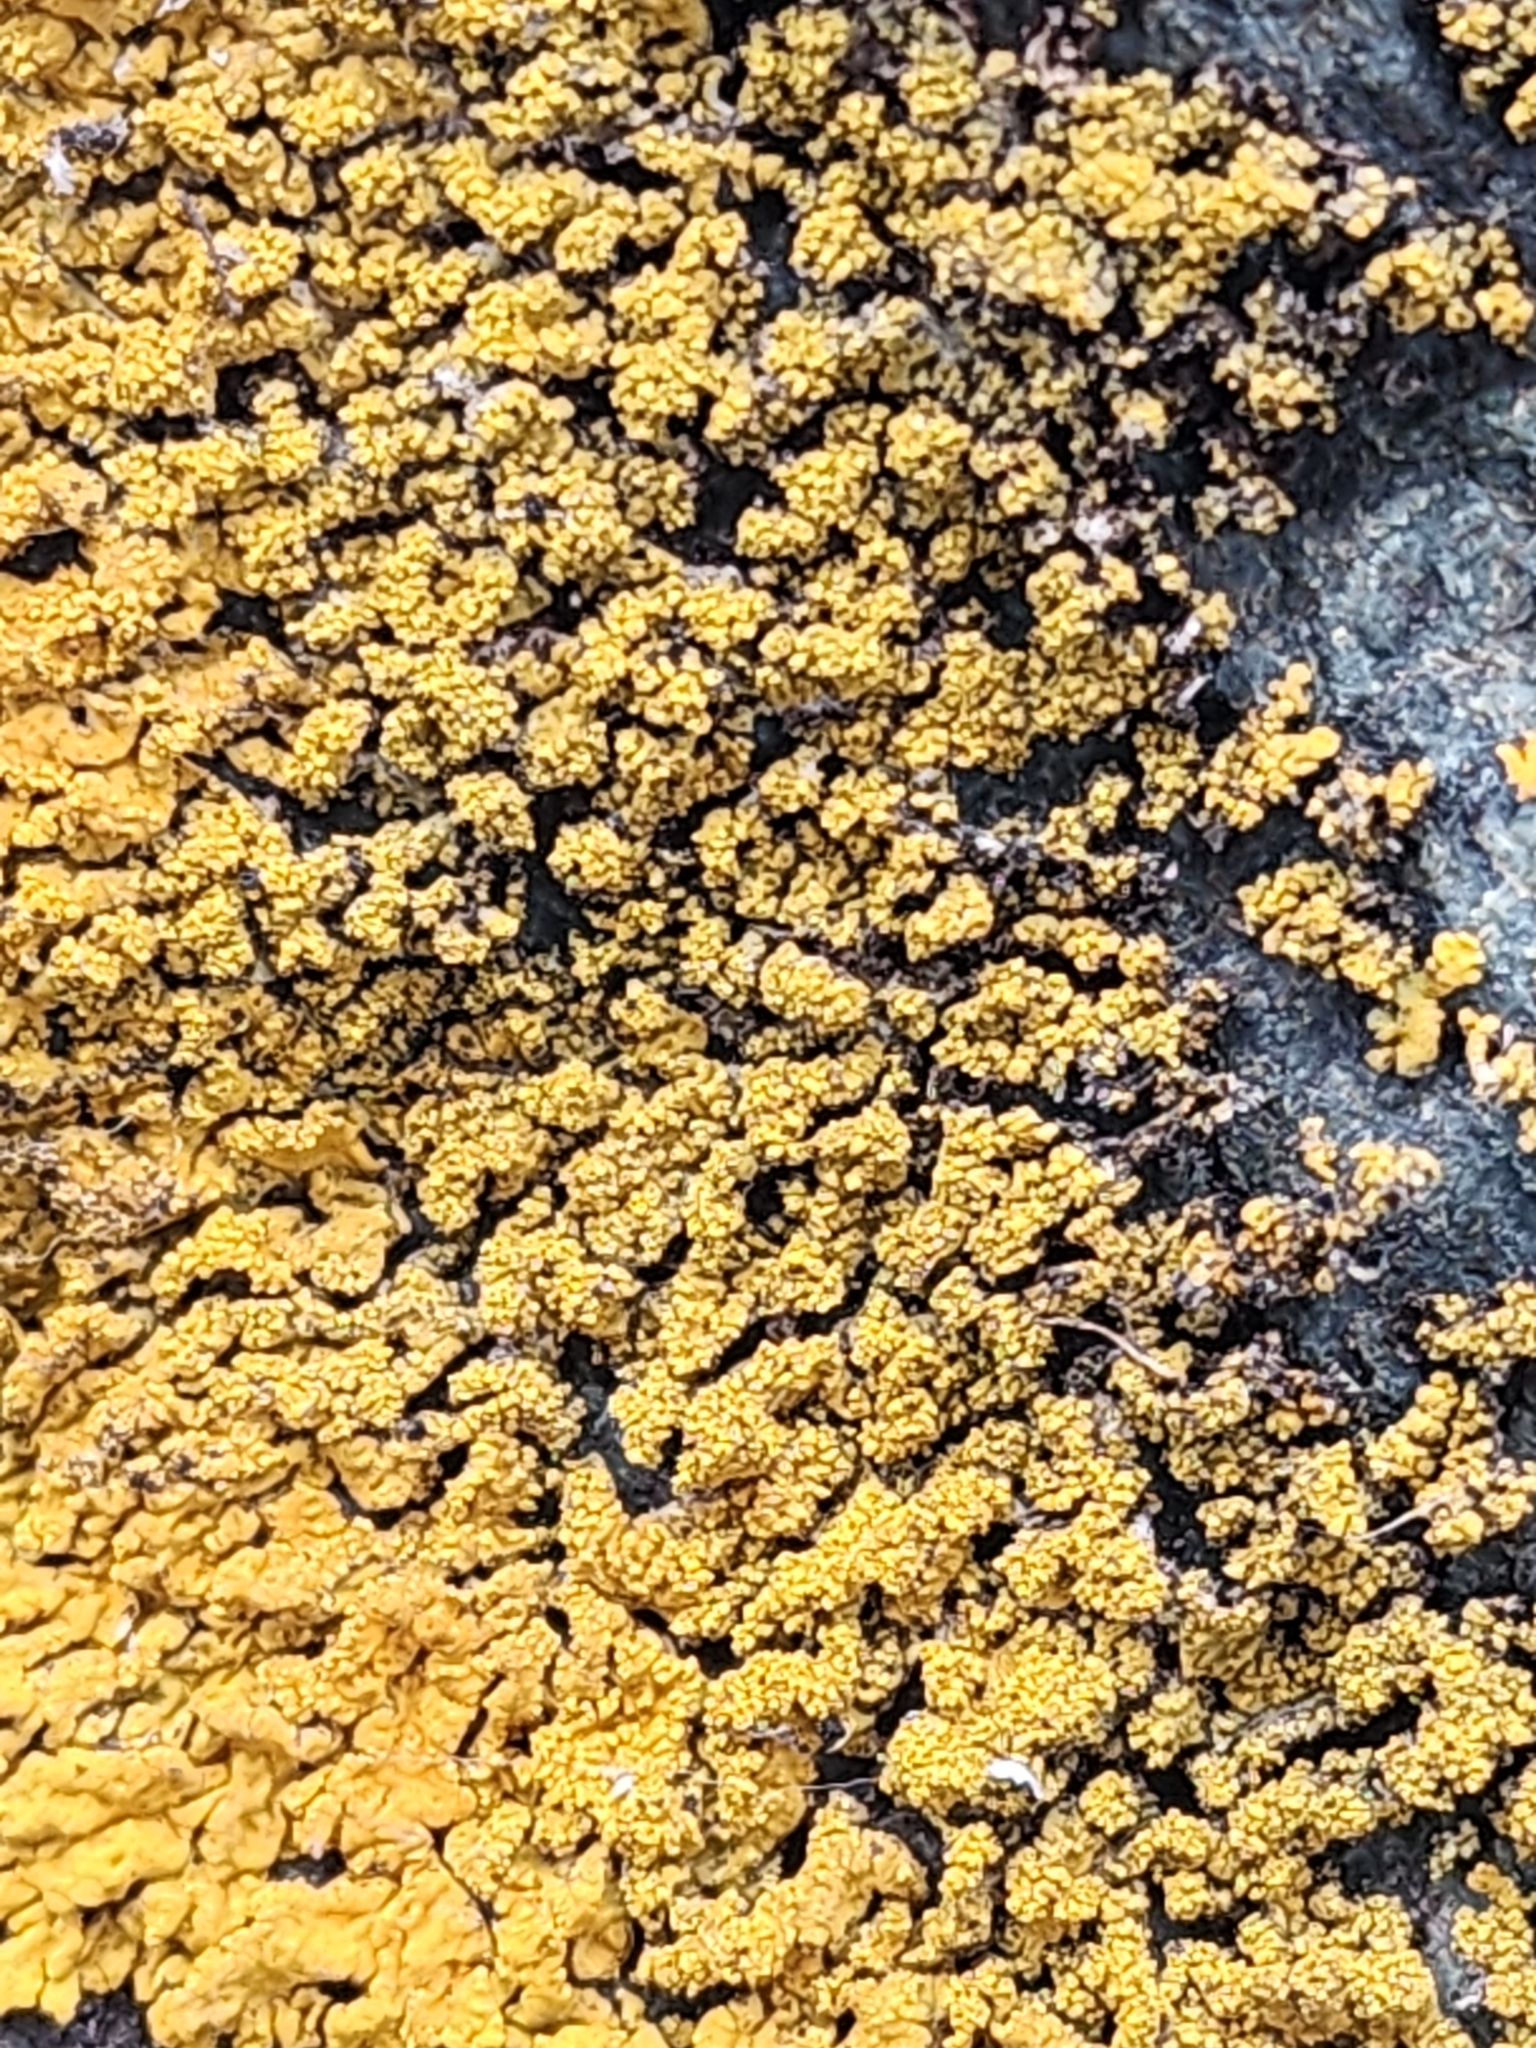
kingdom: Fungi
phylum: Ascomycota
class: Lecanoromycetes
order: Teloschistales
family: Teloschistaceae
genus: Rusavskia
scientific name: Rusavskia sorediata
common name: Sugared sunburst lichen
